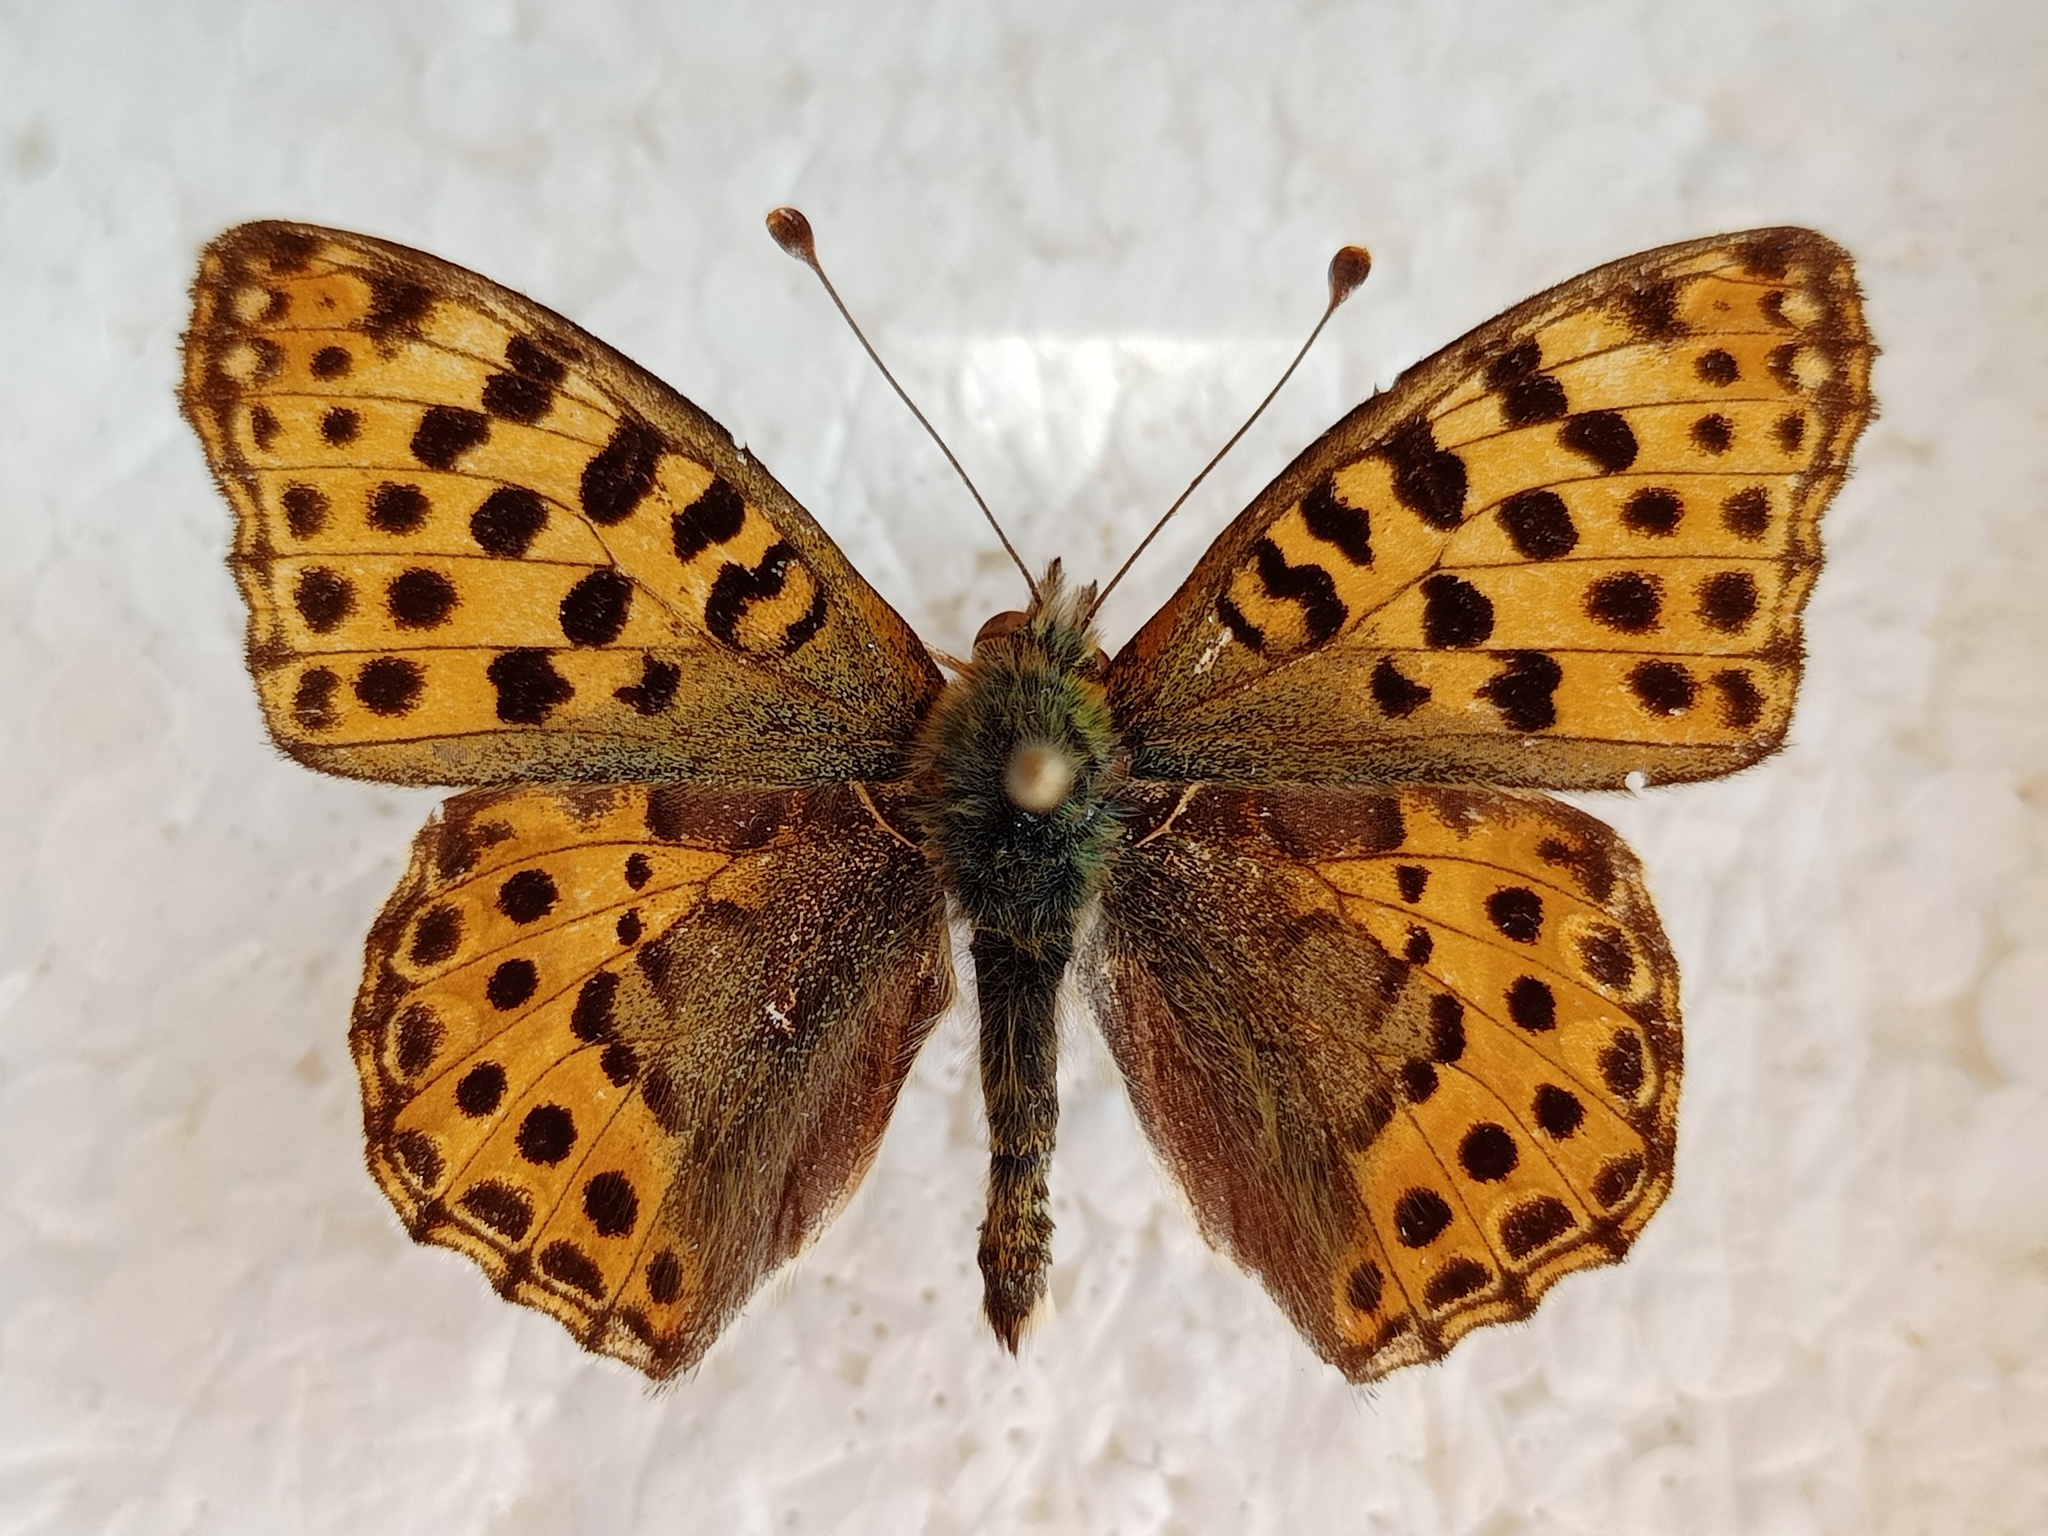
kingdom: Animalia
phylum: Arthropoda
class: Insecta
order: Lepidoptera
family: Nymphalidae
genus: Issoria
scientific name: Issoria lathonia
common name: Queen of spain fritillary
